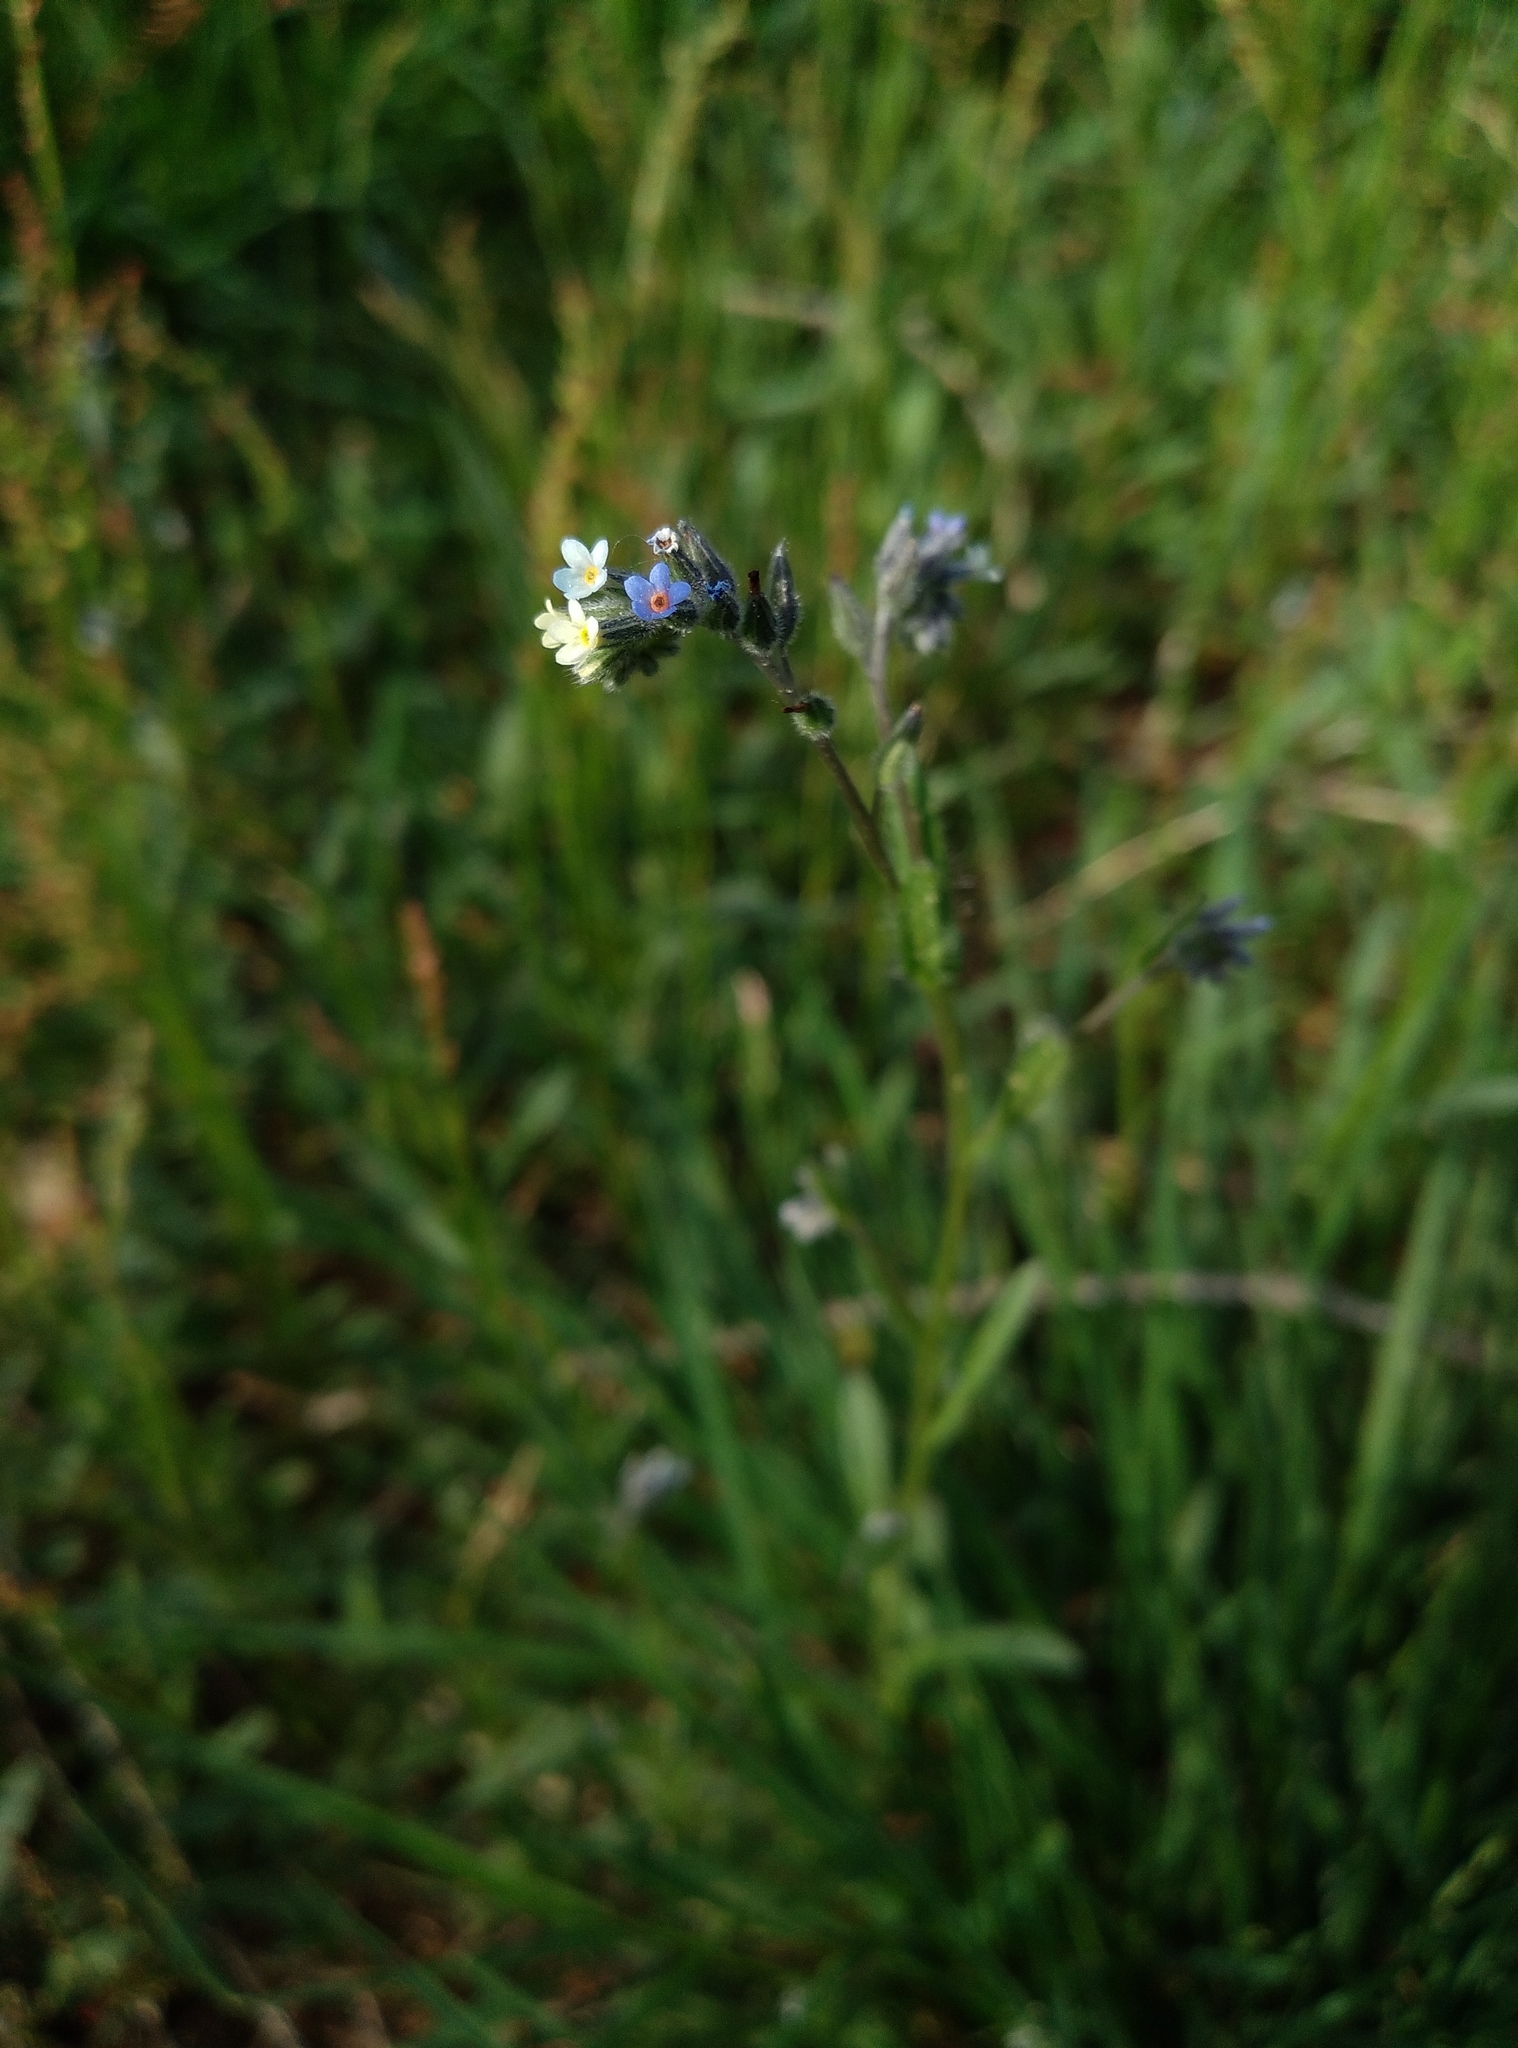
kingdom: Plantae
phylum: Tracheophyta
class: Magnoliopsida
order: Boraginales
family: Boraginaceae
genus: Myosotis
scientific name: Myosotis discolor
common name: Changing forget-me-not
